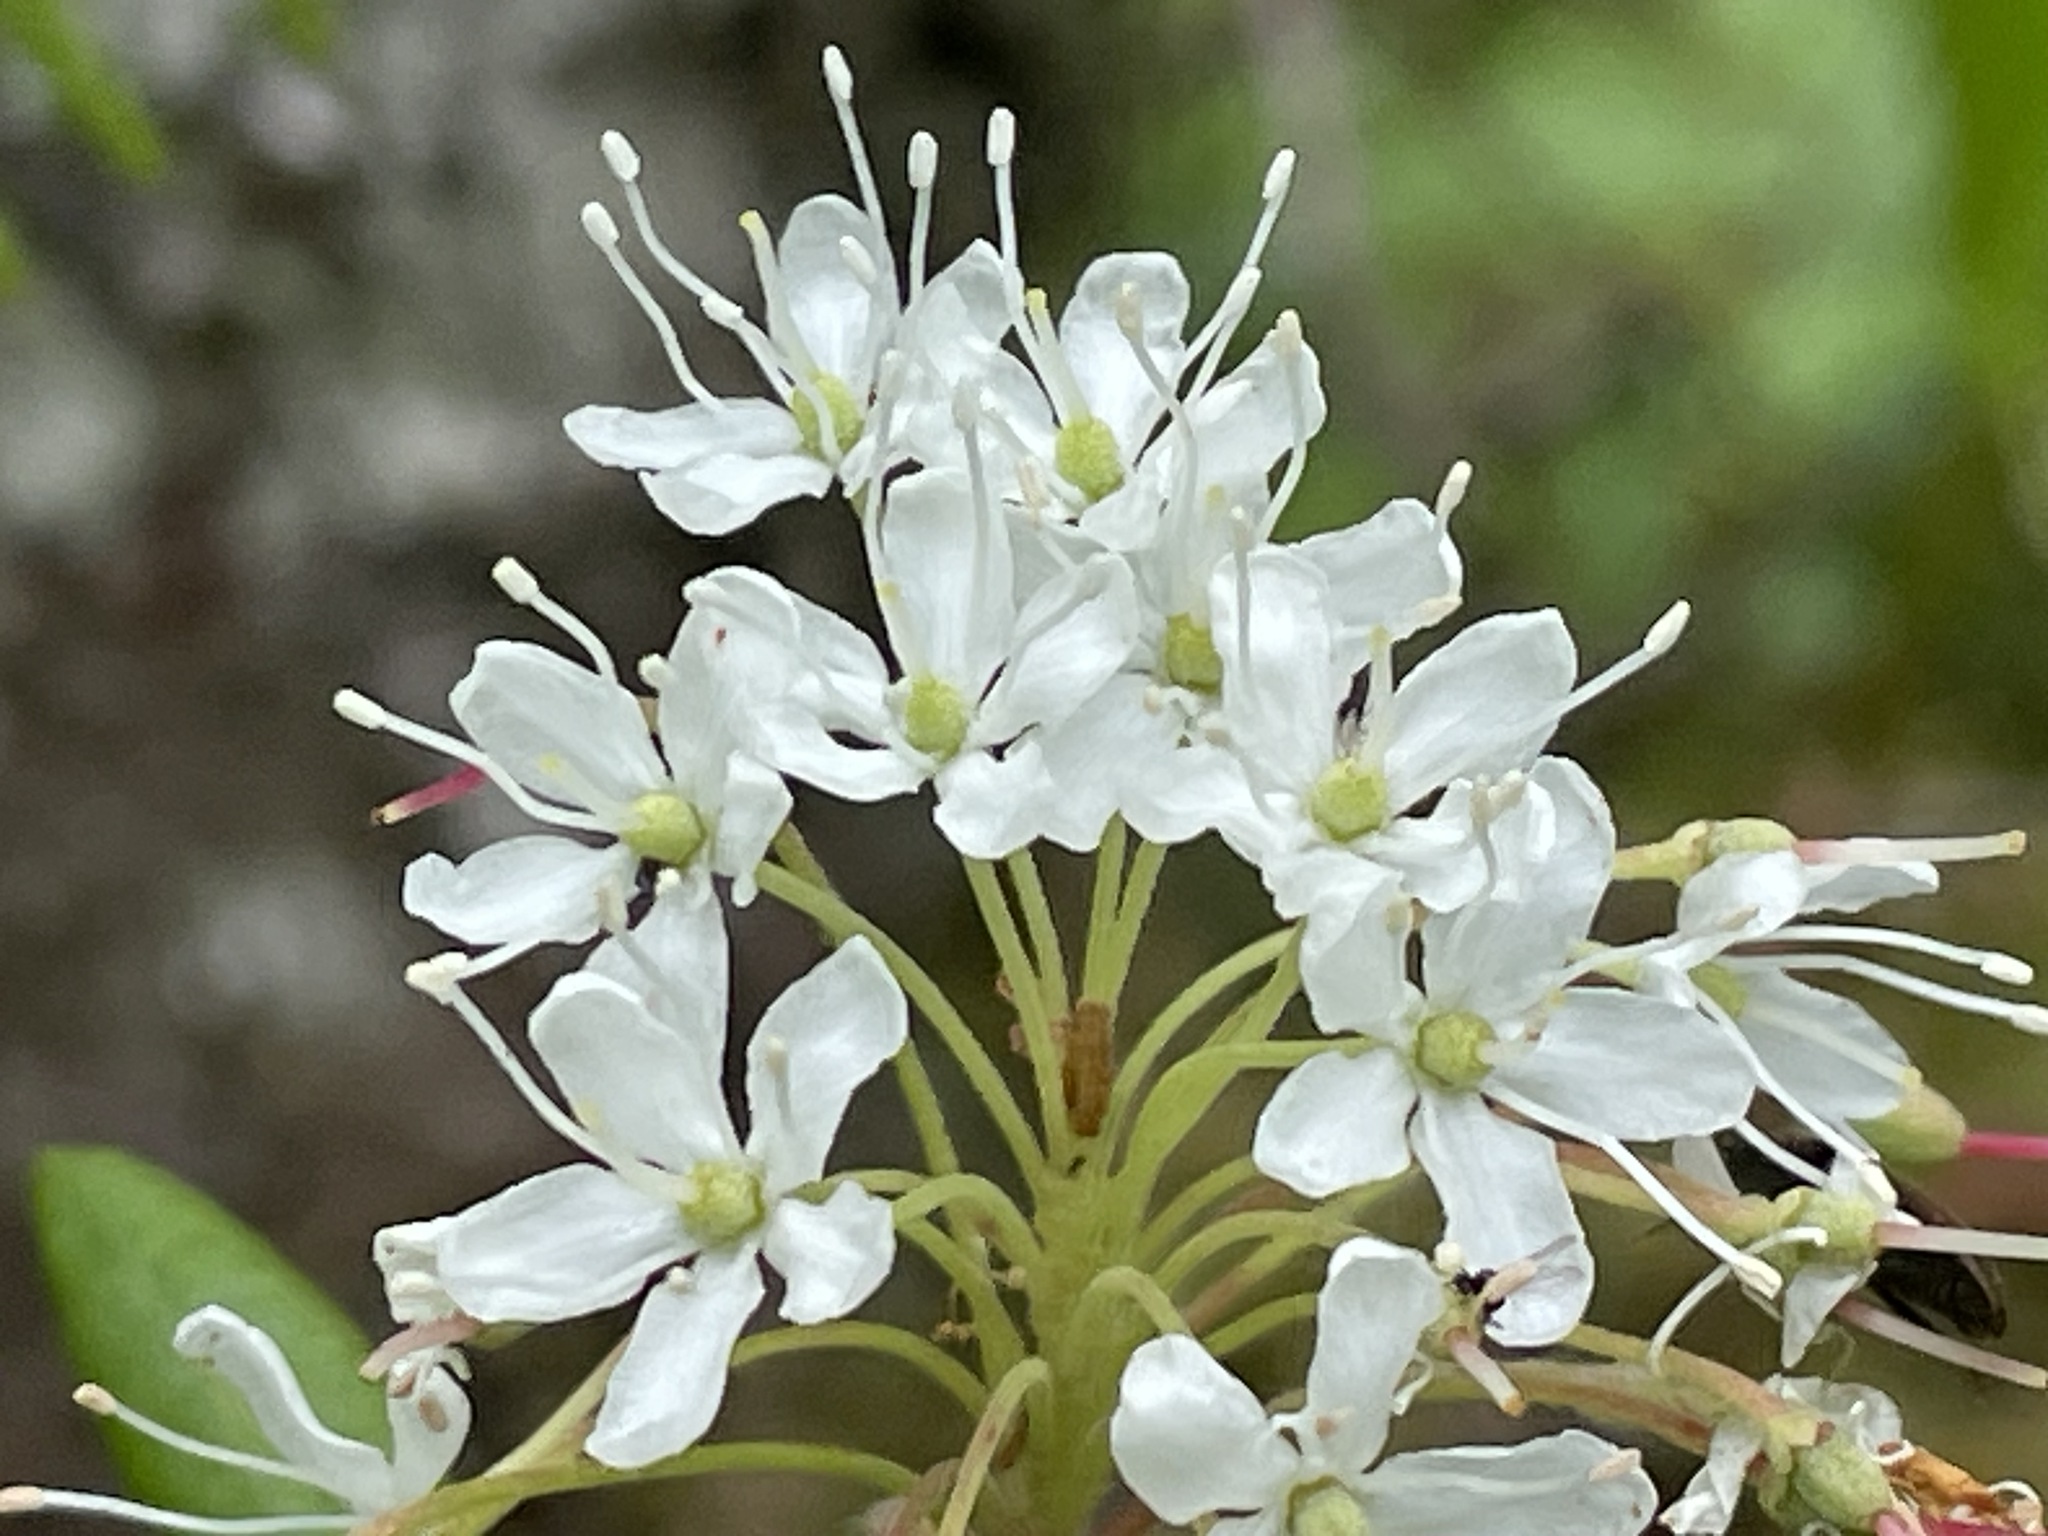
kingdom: Plantae
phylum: Tracheophyta
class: Magnoliopsida
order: Ericales
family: Ericaceae
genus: Rhododendron
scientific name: Rhododendron groenlandicum
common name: Bog labrador tea
